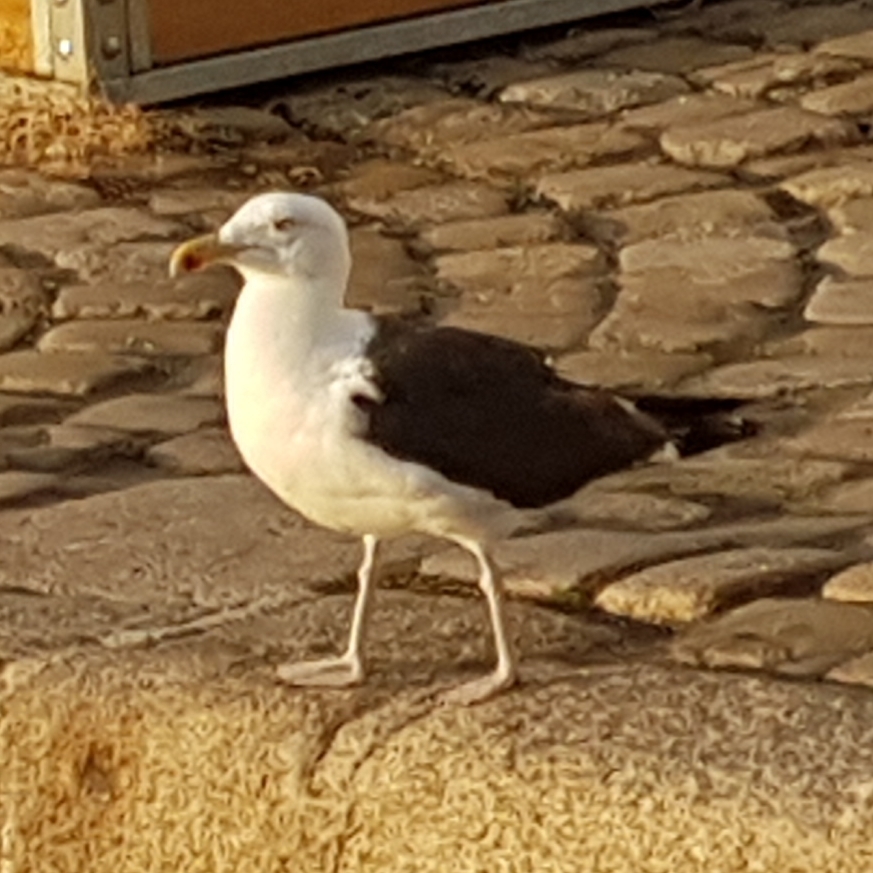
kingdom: Animalia
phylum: Chordata
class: Aves
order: Charadriiformes
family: Laridae
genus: Larus
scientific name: Larus marinus
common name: Great black-backed gull
